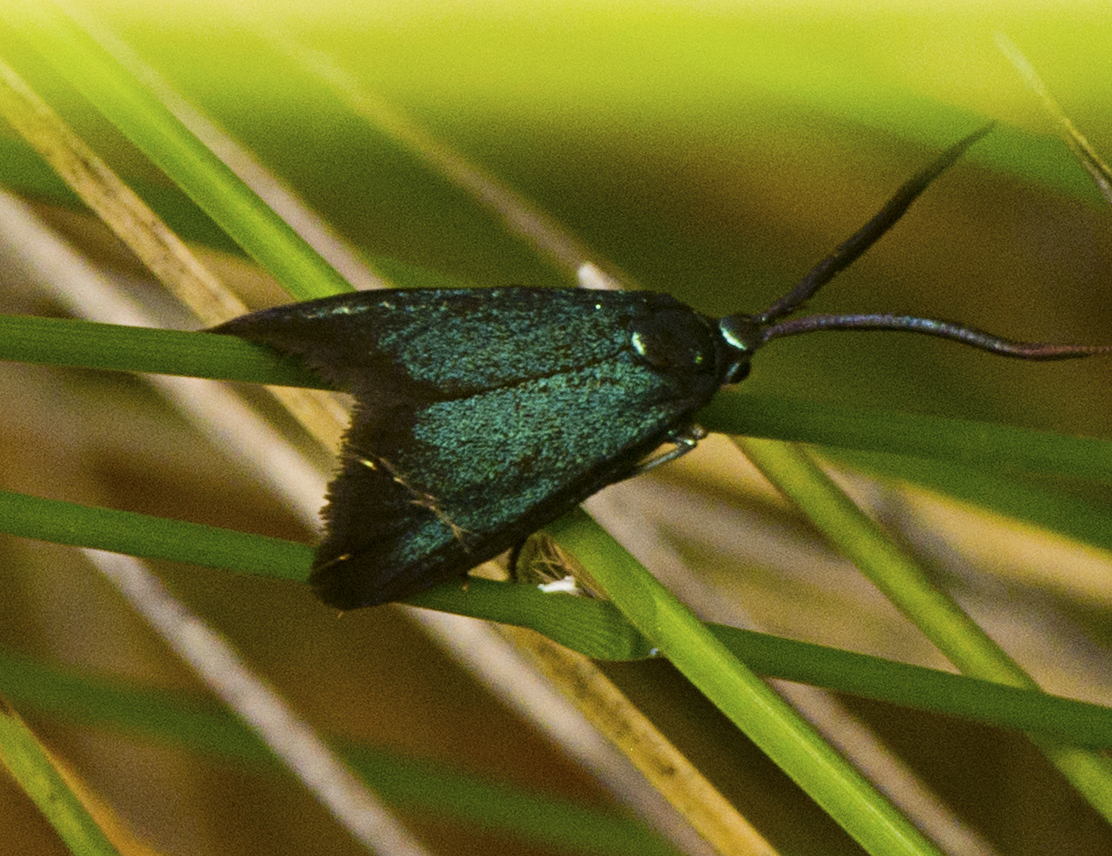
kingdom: Animalia
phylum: Arthropoda
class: Insecta
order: Lepidoptera
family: Zygaenidae
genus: Pollanisus
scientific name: Pollanisus viridipulverulenta
